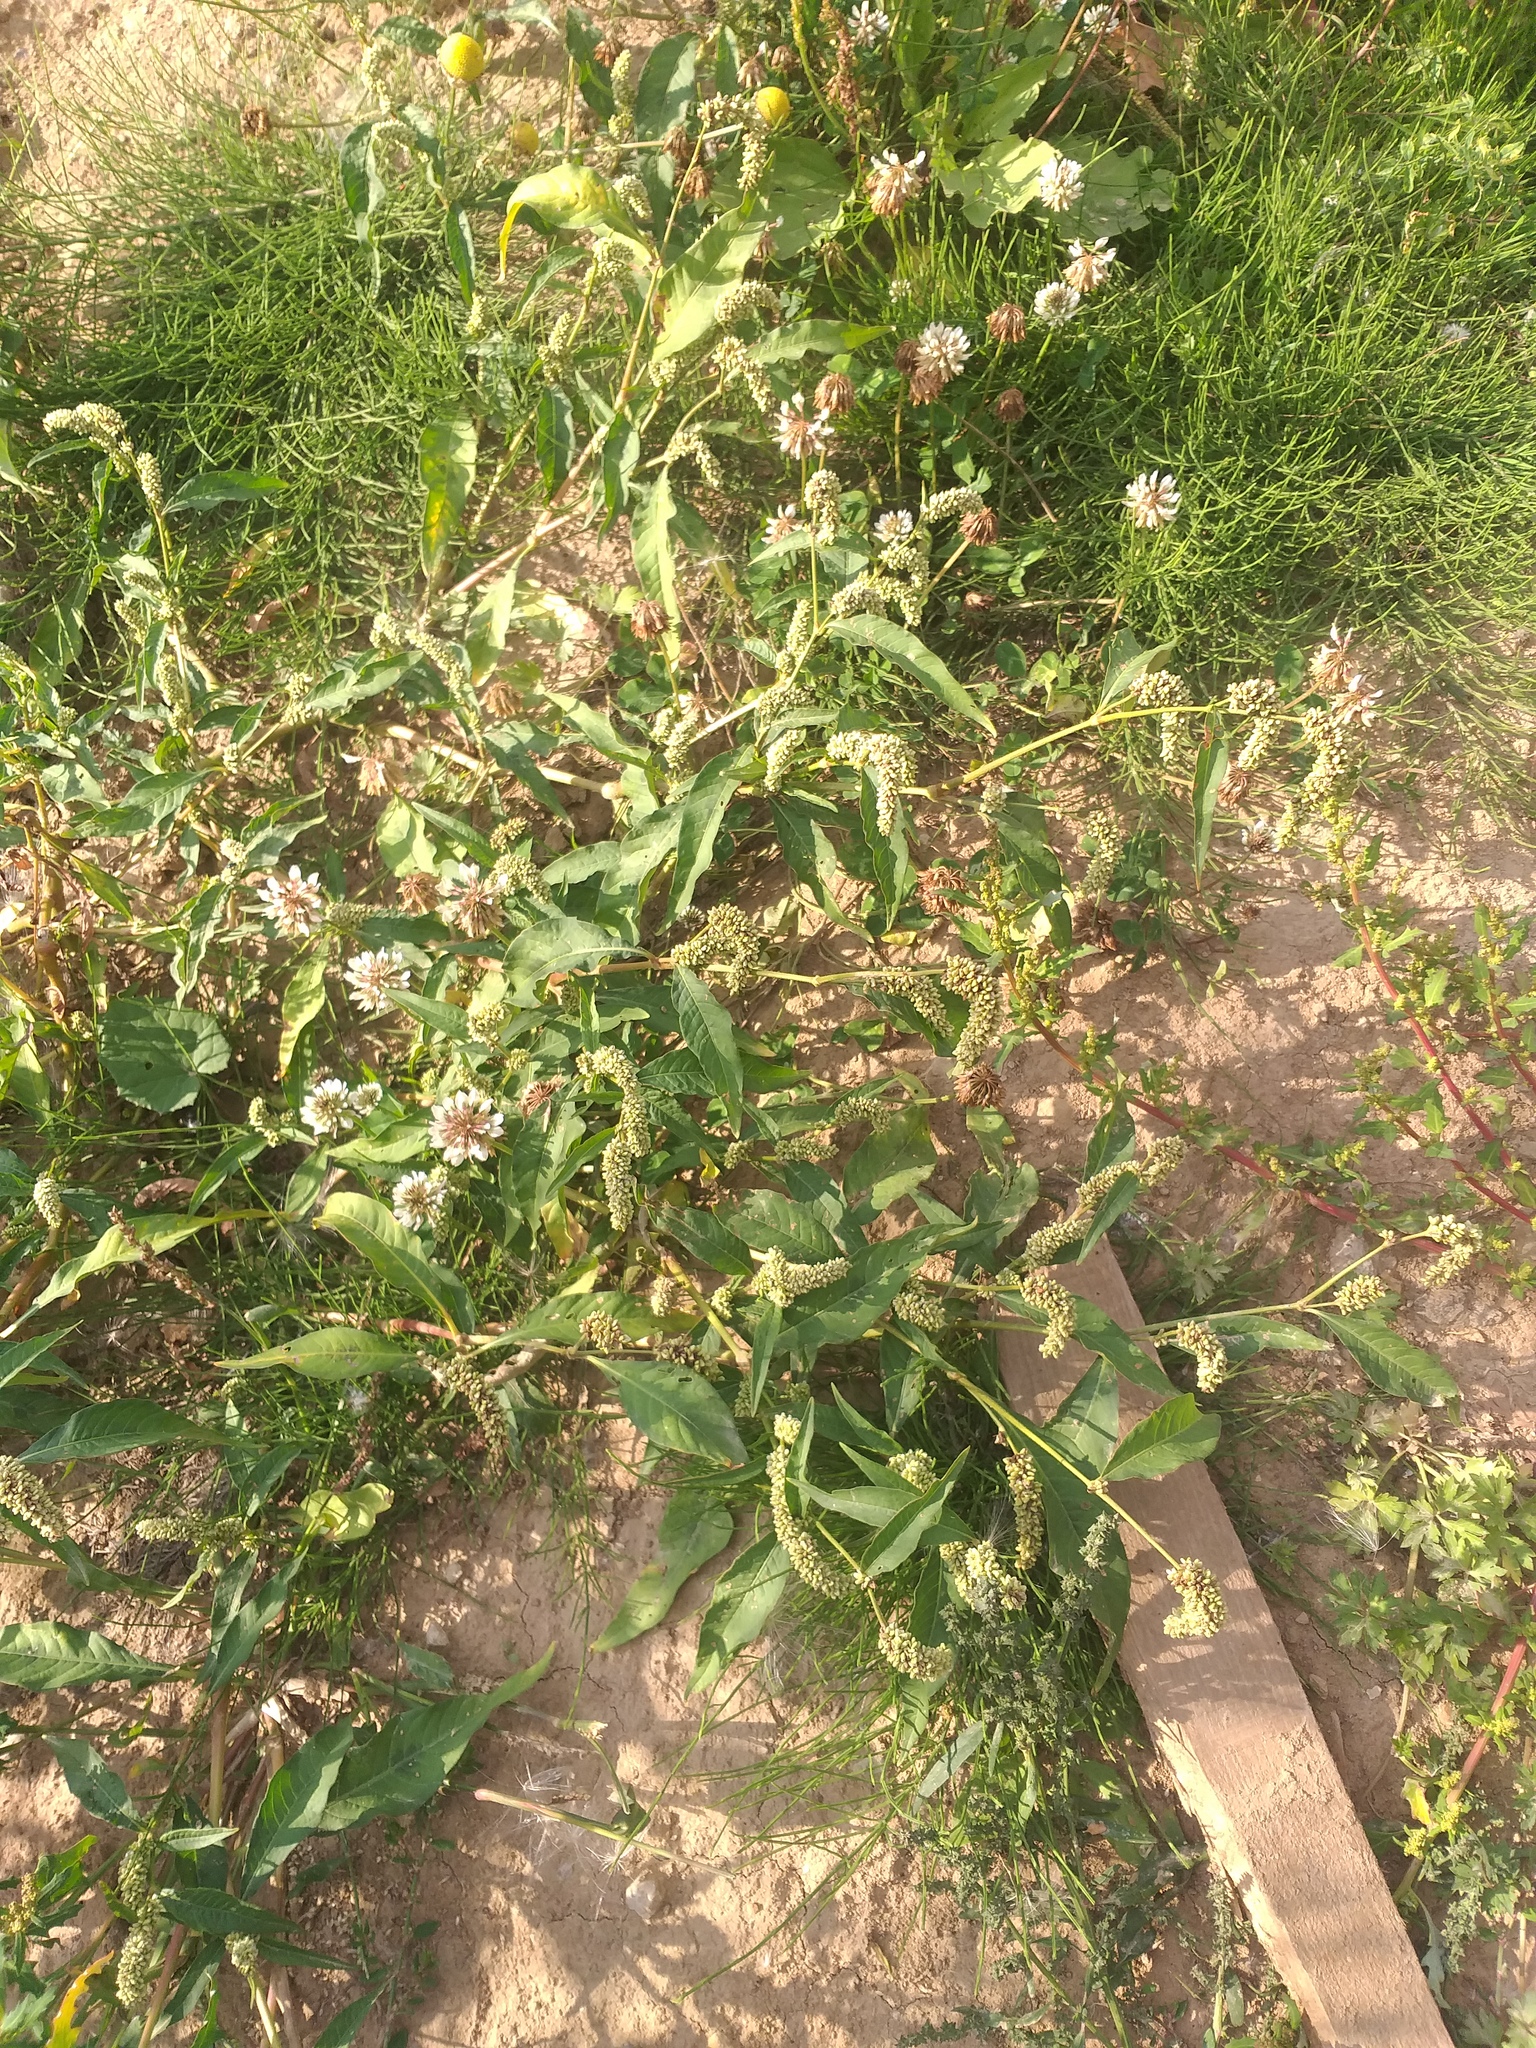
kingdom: Plantae
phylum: Tracheophyta
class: Magnoliopsida
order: Caryophyllales
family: Polygonaceae
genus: Persicaria
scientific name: Persicaria lapathifolia
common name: Curlytop knotweed
